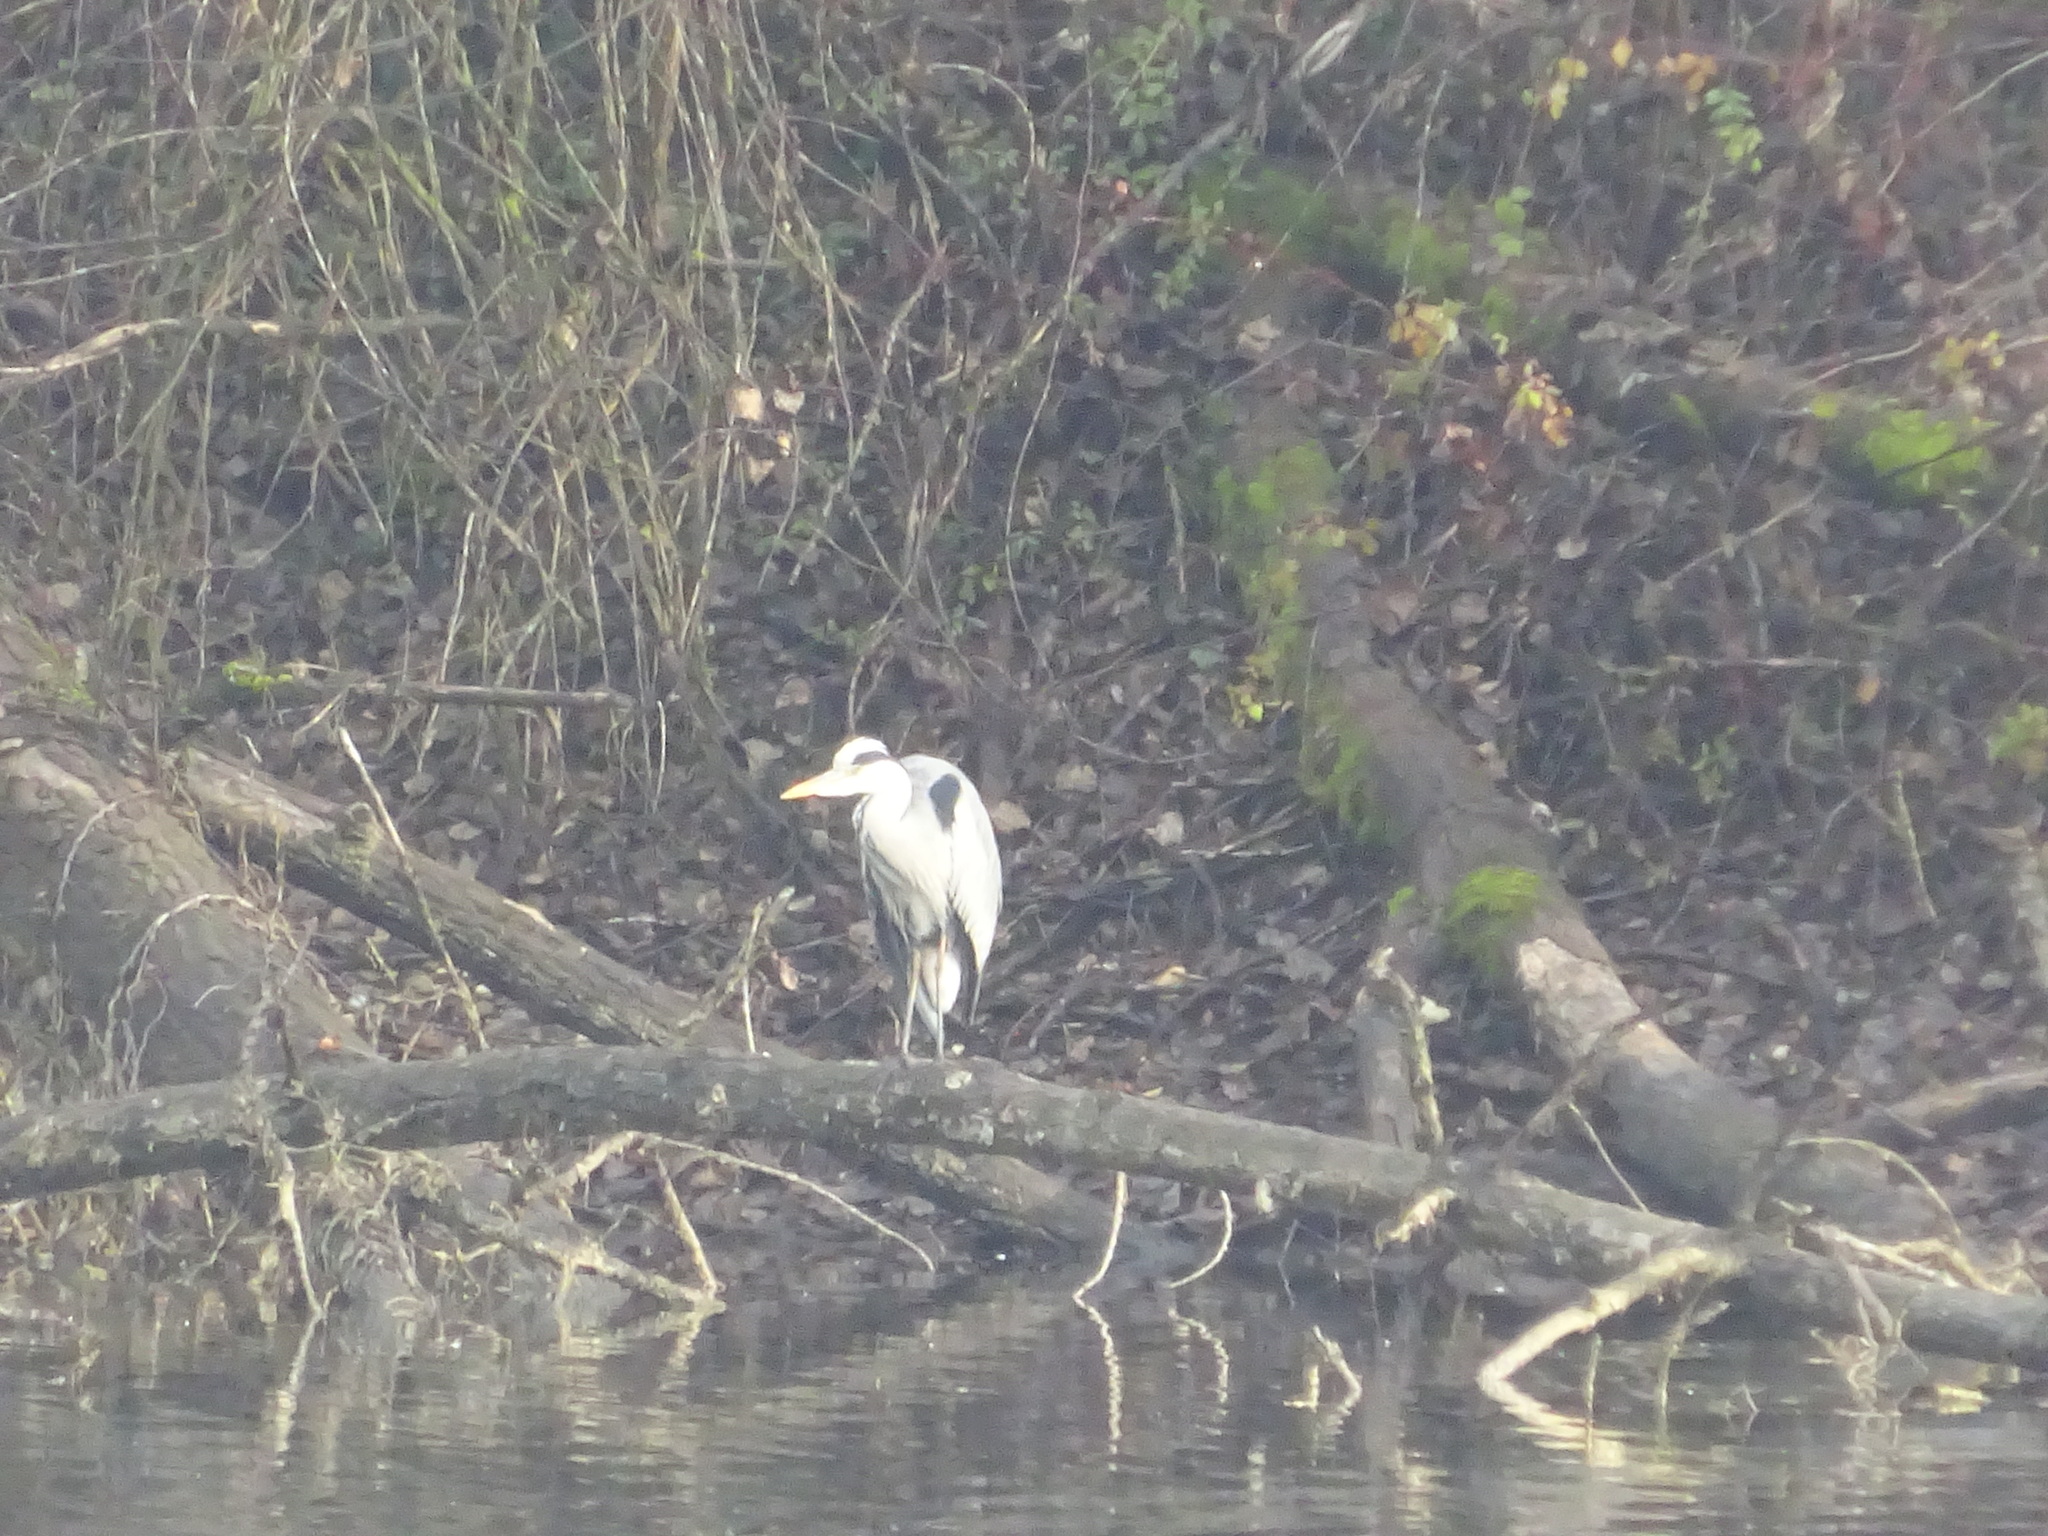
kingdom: Animalia
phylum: Chordata
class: Aves
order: Pelecaniformes
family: Ardeidae
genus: Ardea
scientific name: Ardea cinerea
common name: Grey heron
